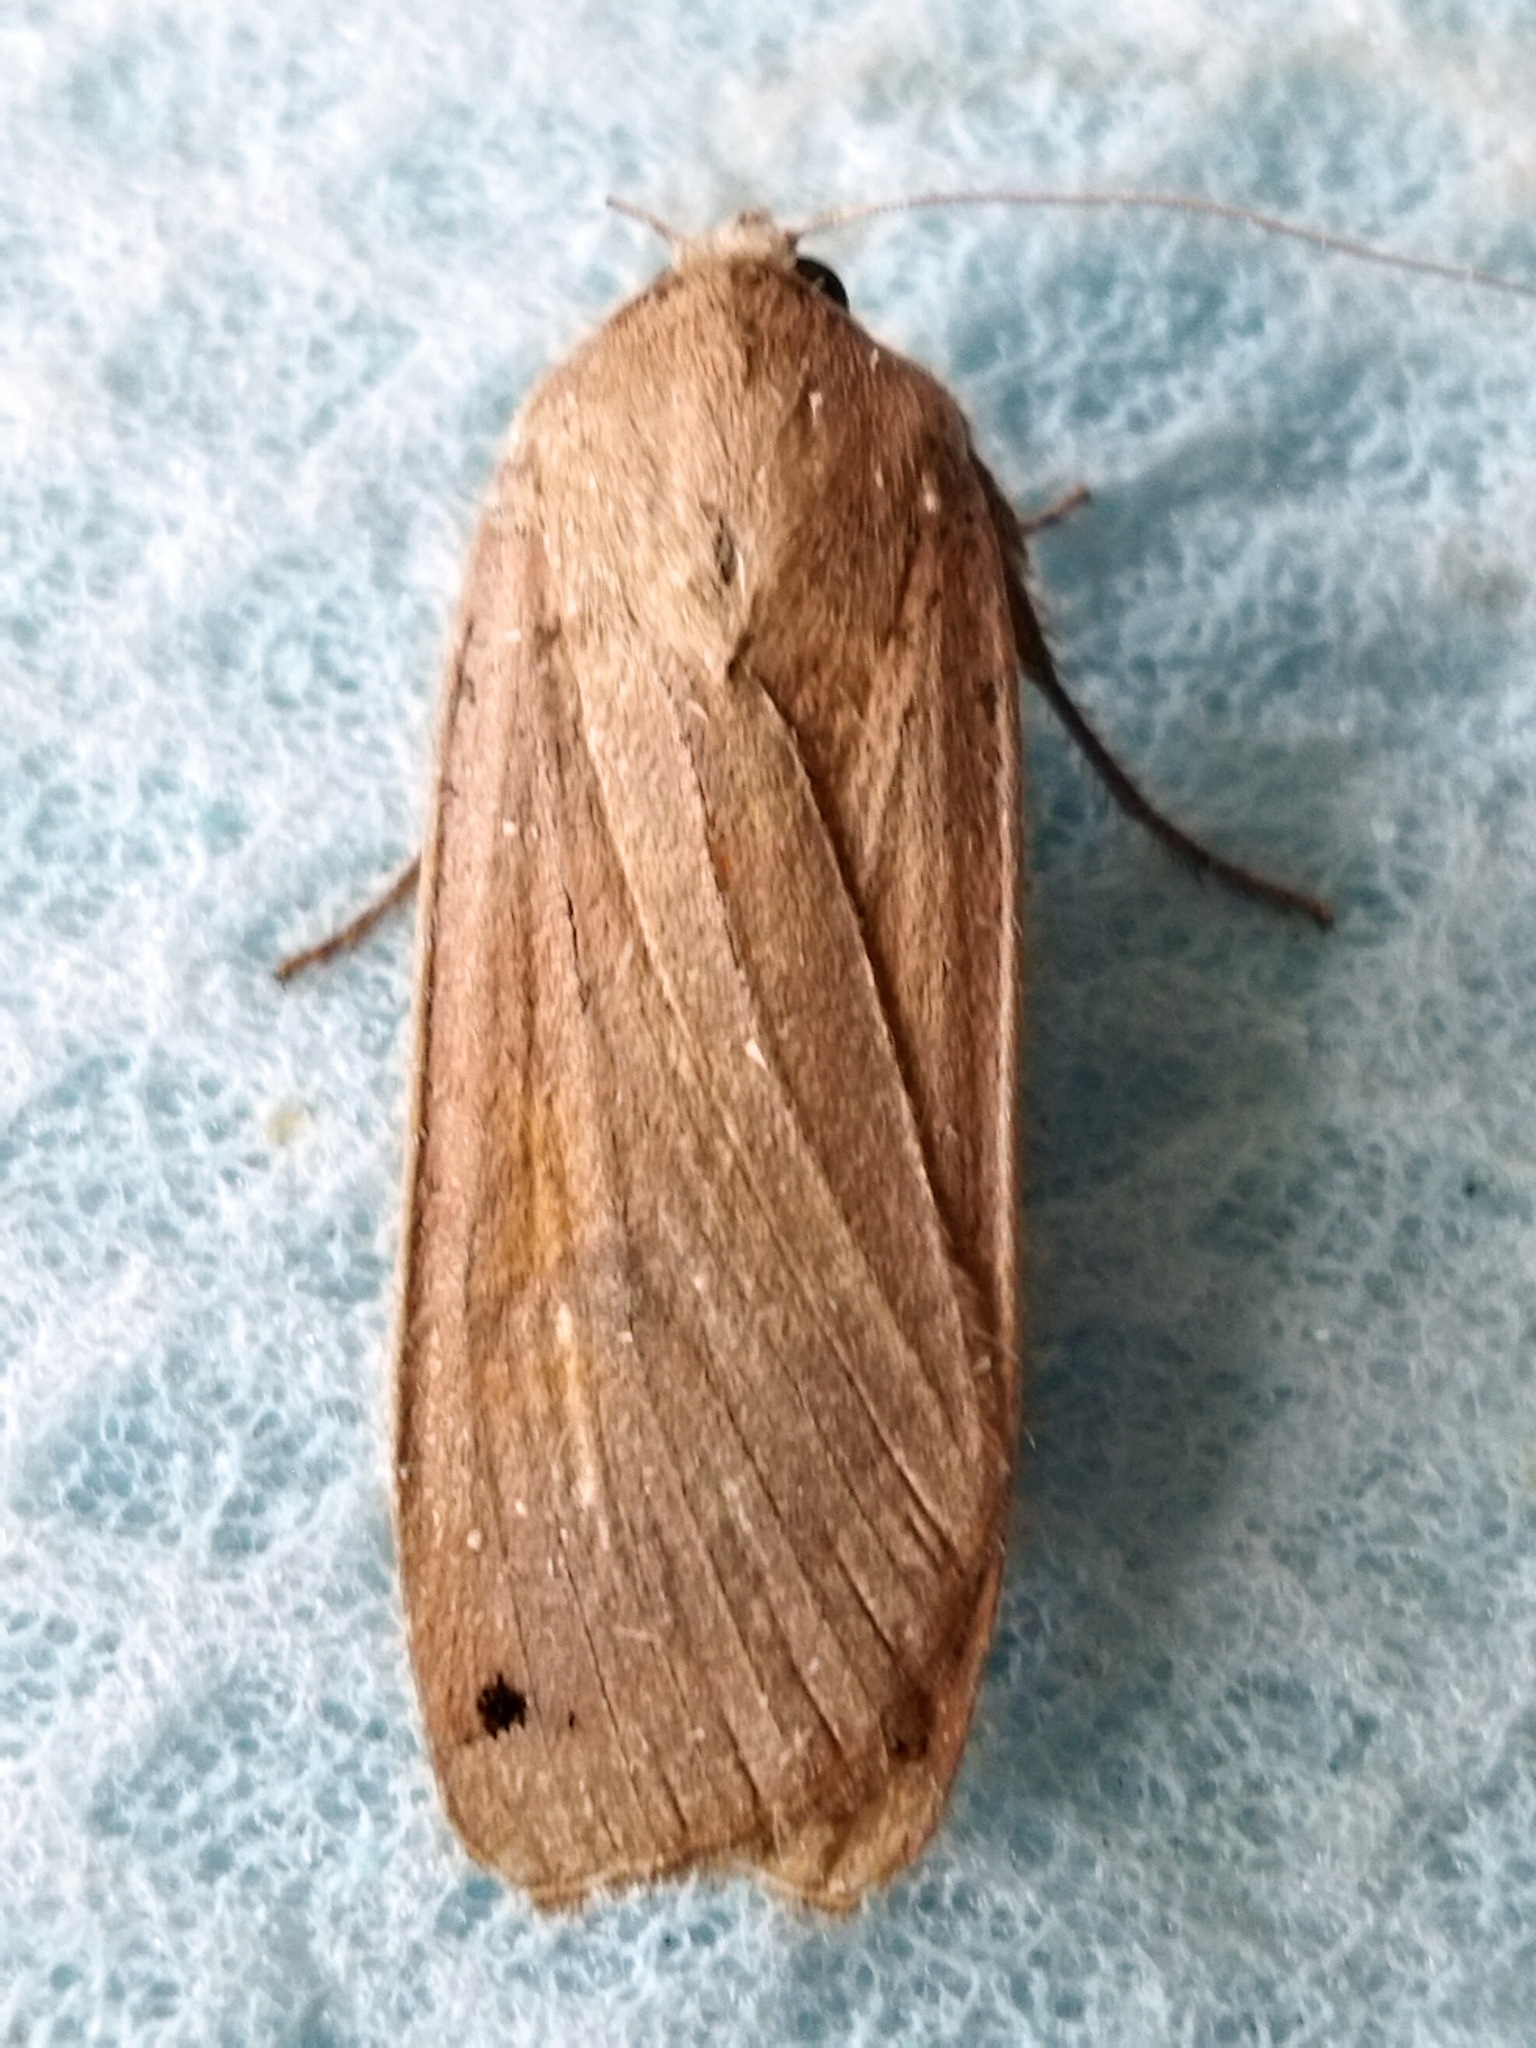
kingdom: Animalia
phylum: Arthropoda
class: Insecta
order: Lepidoptera
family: Noctuidae
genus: Noctua
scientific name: Noctua pronuba
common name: Large yellow underwing
